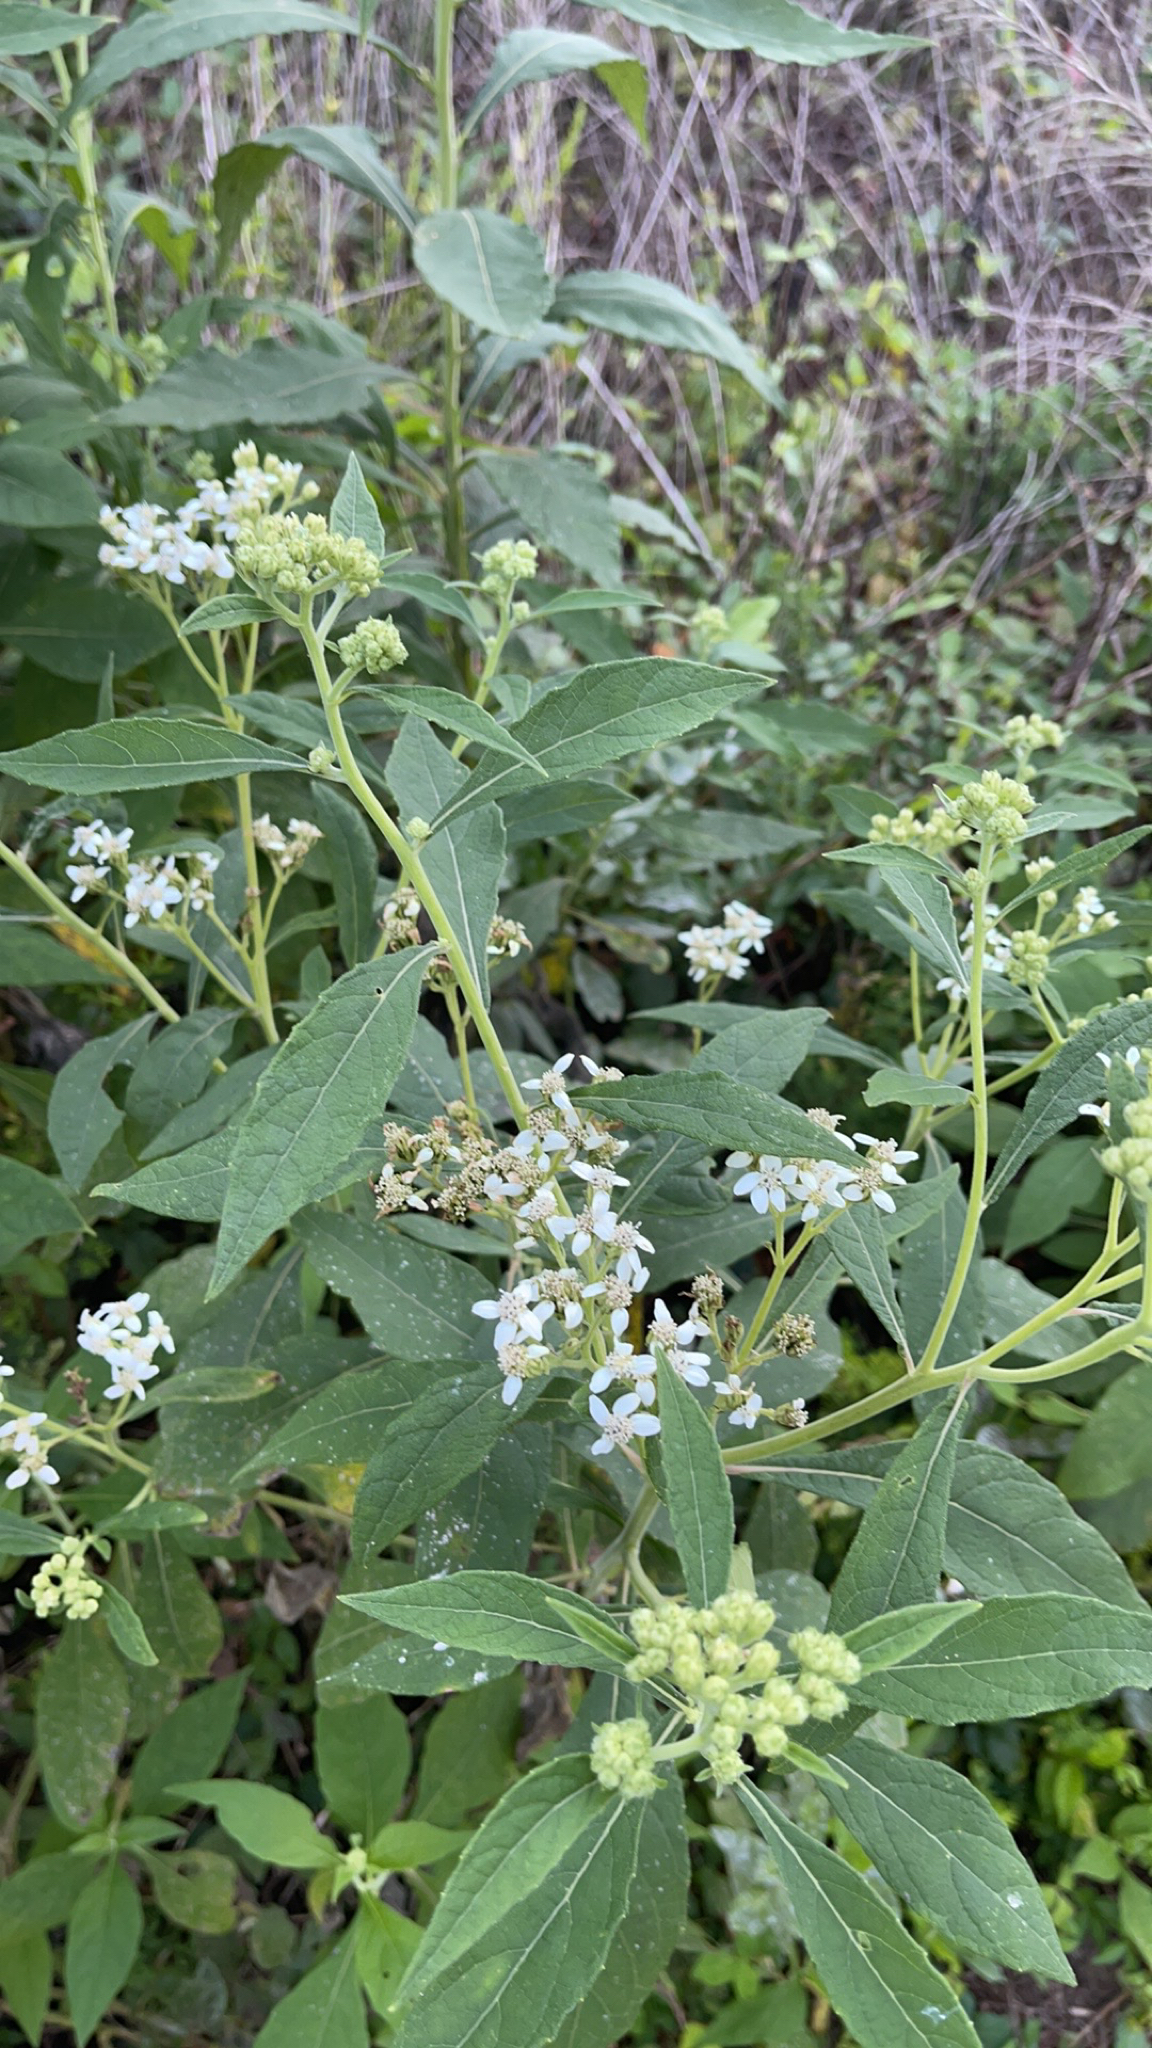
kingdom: Plantae
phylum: Tracheophyta
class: Magnoliopsida
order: Asterales
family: Asteraceae
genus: Verbesina
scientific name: Verbesina virginica
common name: Frostweed
